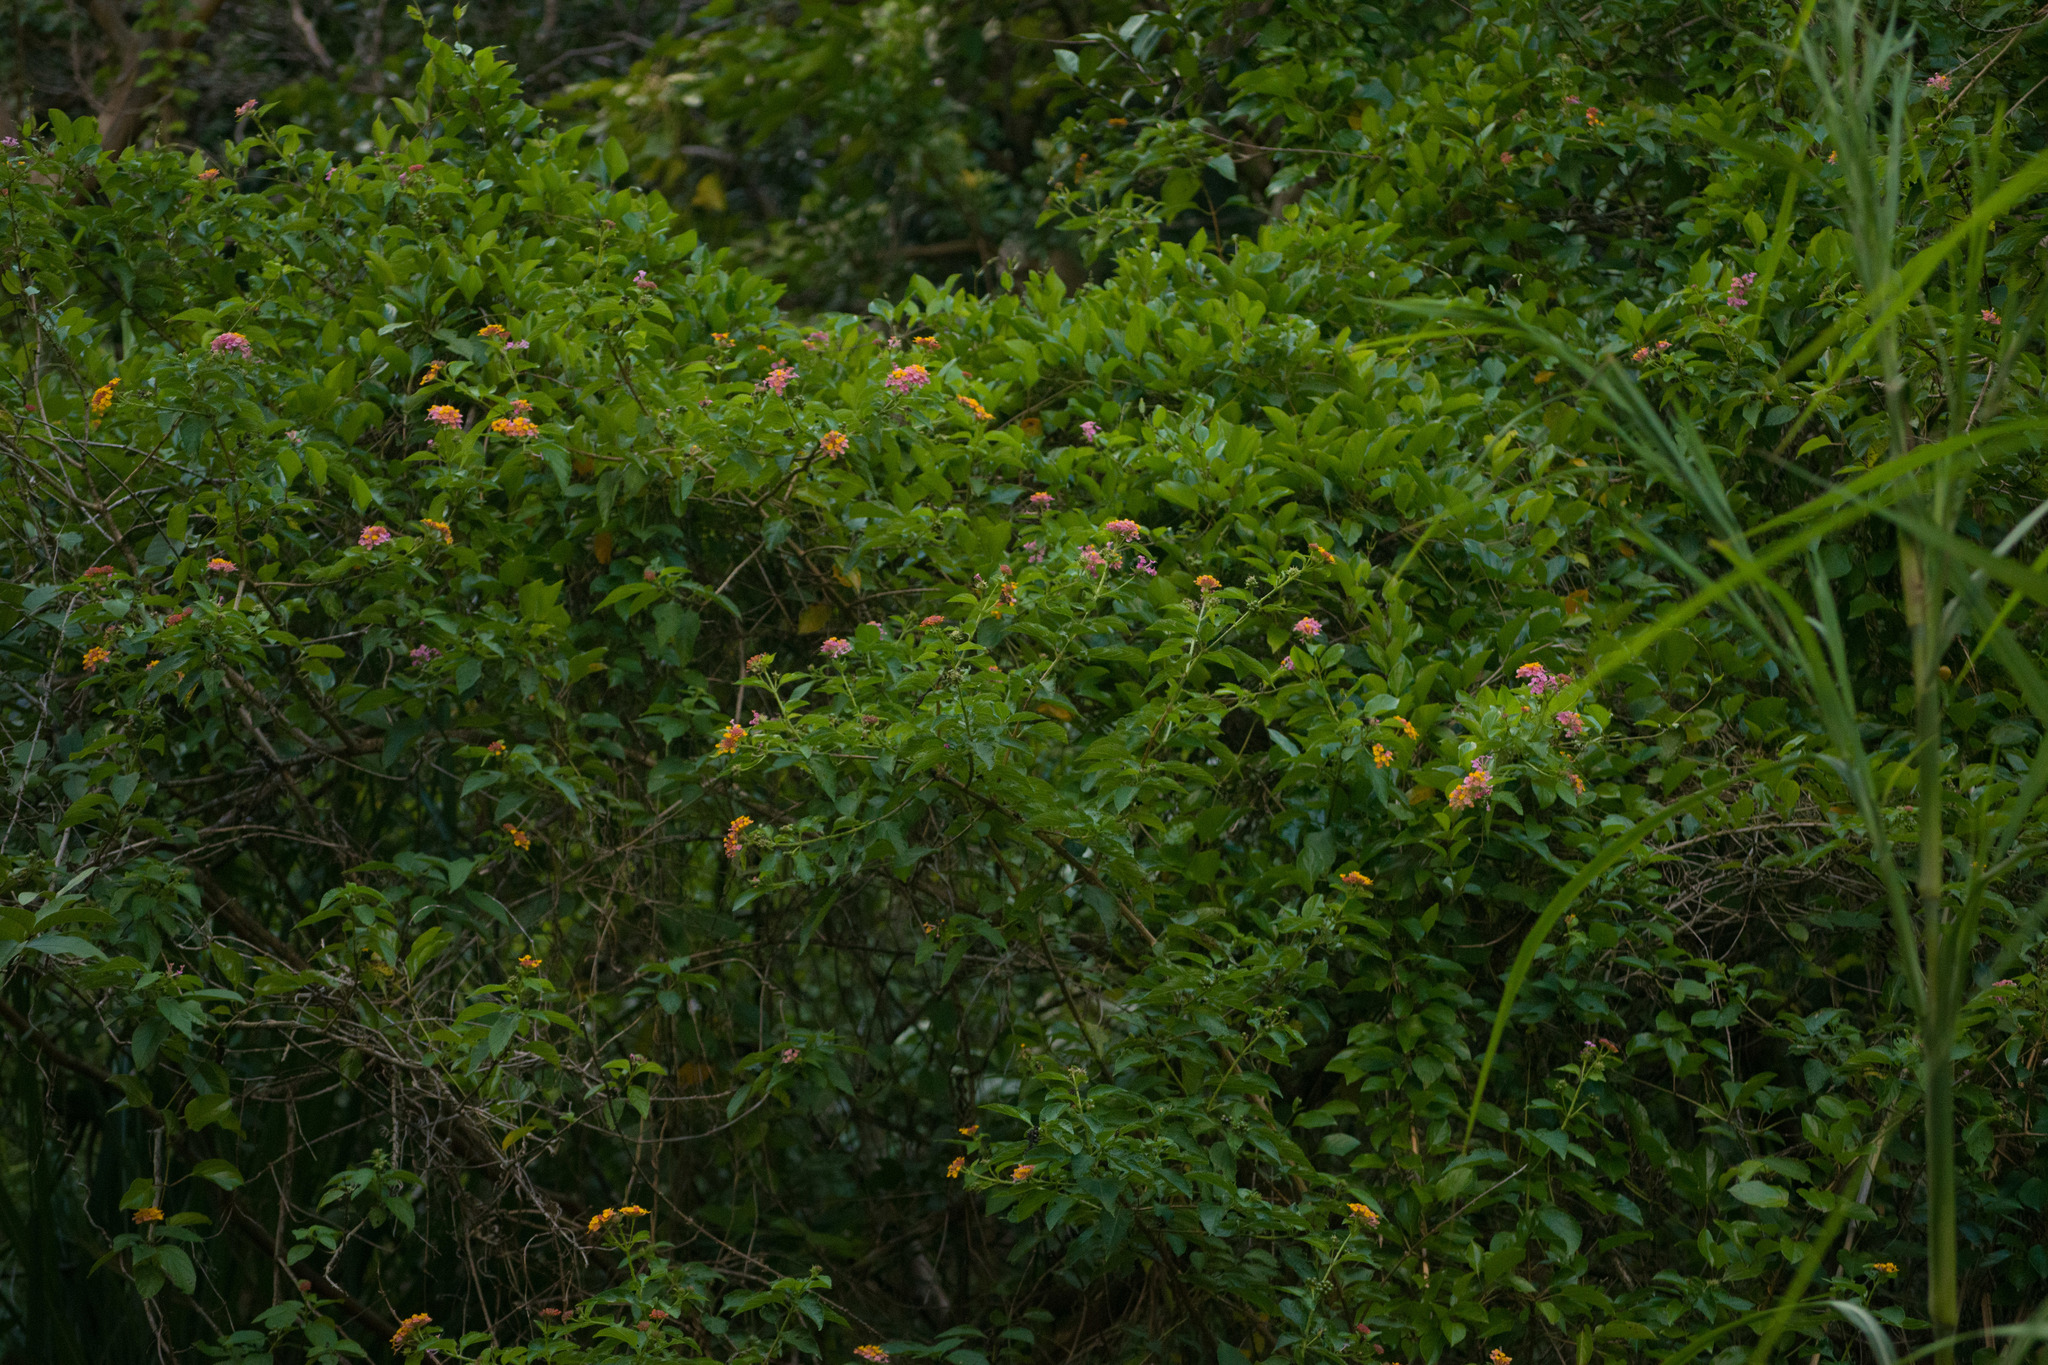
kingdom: Plantae
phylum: Tracheophyta
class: Magnoliopsida
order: Lamiales
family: Verbenaceae
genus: Lantana
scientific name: Lantana camara
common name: Lantana
